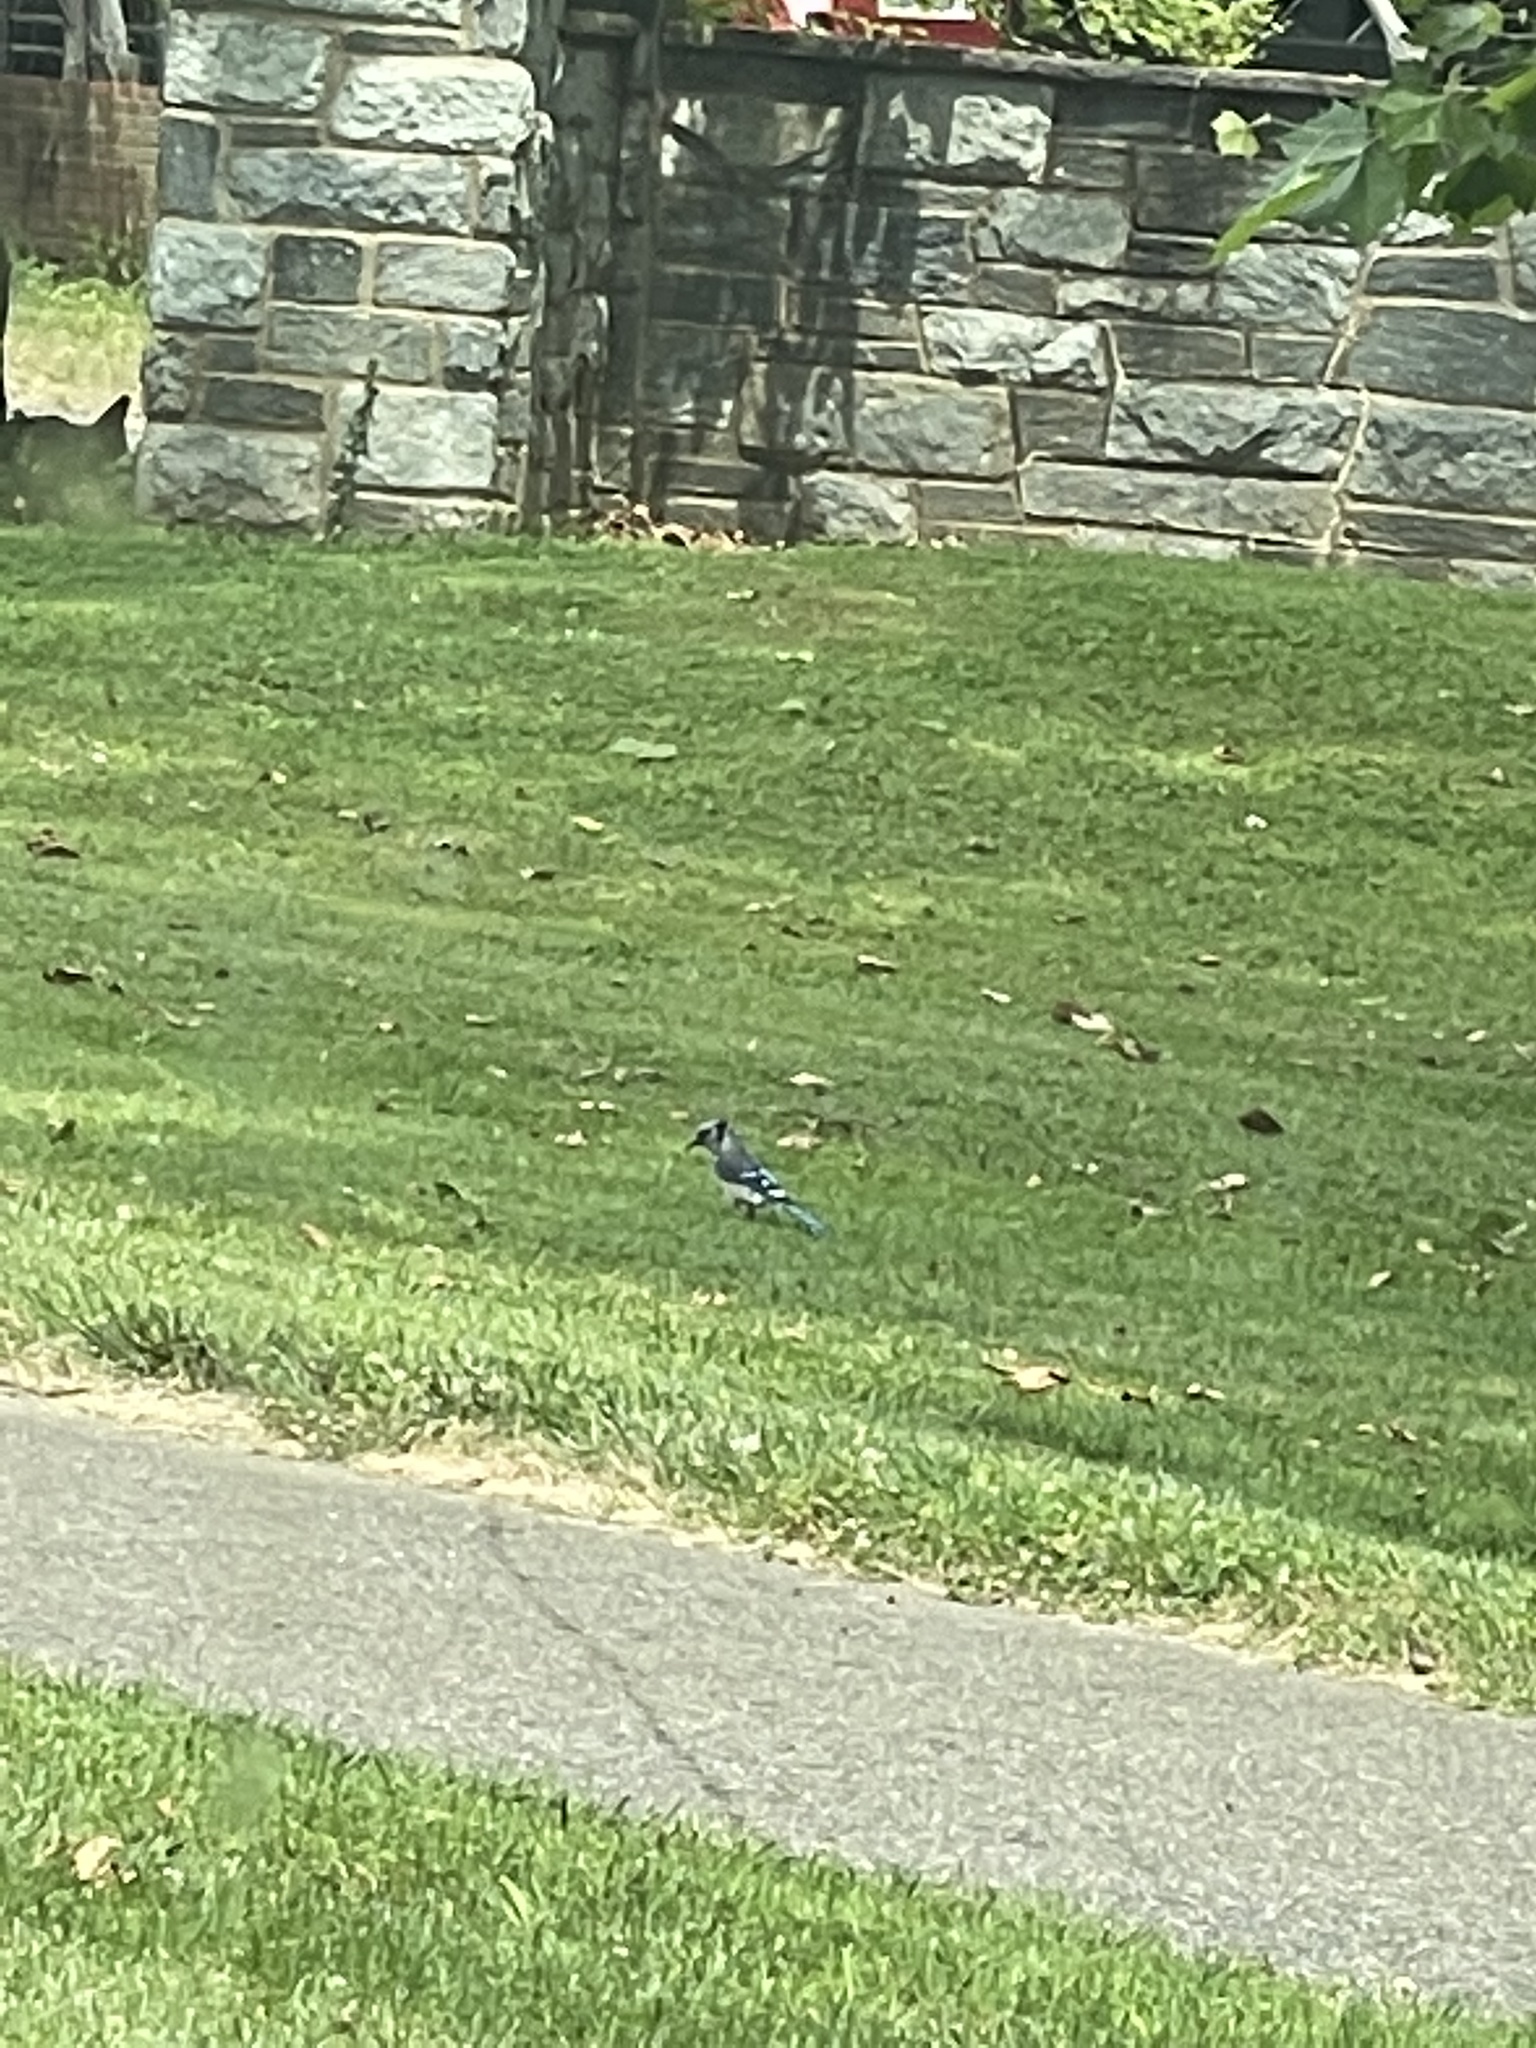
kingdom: Animalia
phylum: Chordata
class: Aves
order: Passeriformes
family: Corvidae
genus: Cyanocitta
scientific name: Cyanocitta cristata
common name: Blue jay
